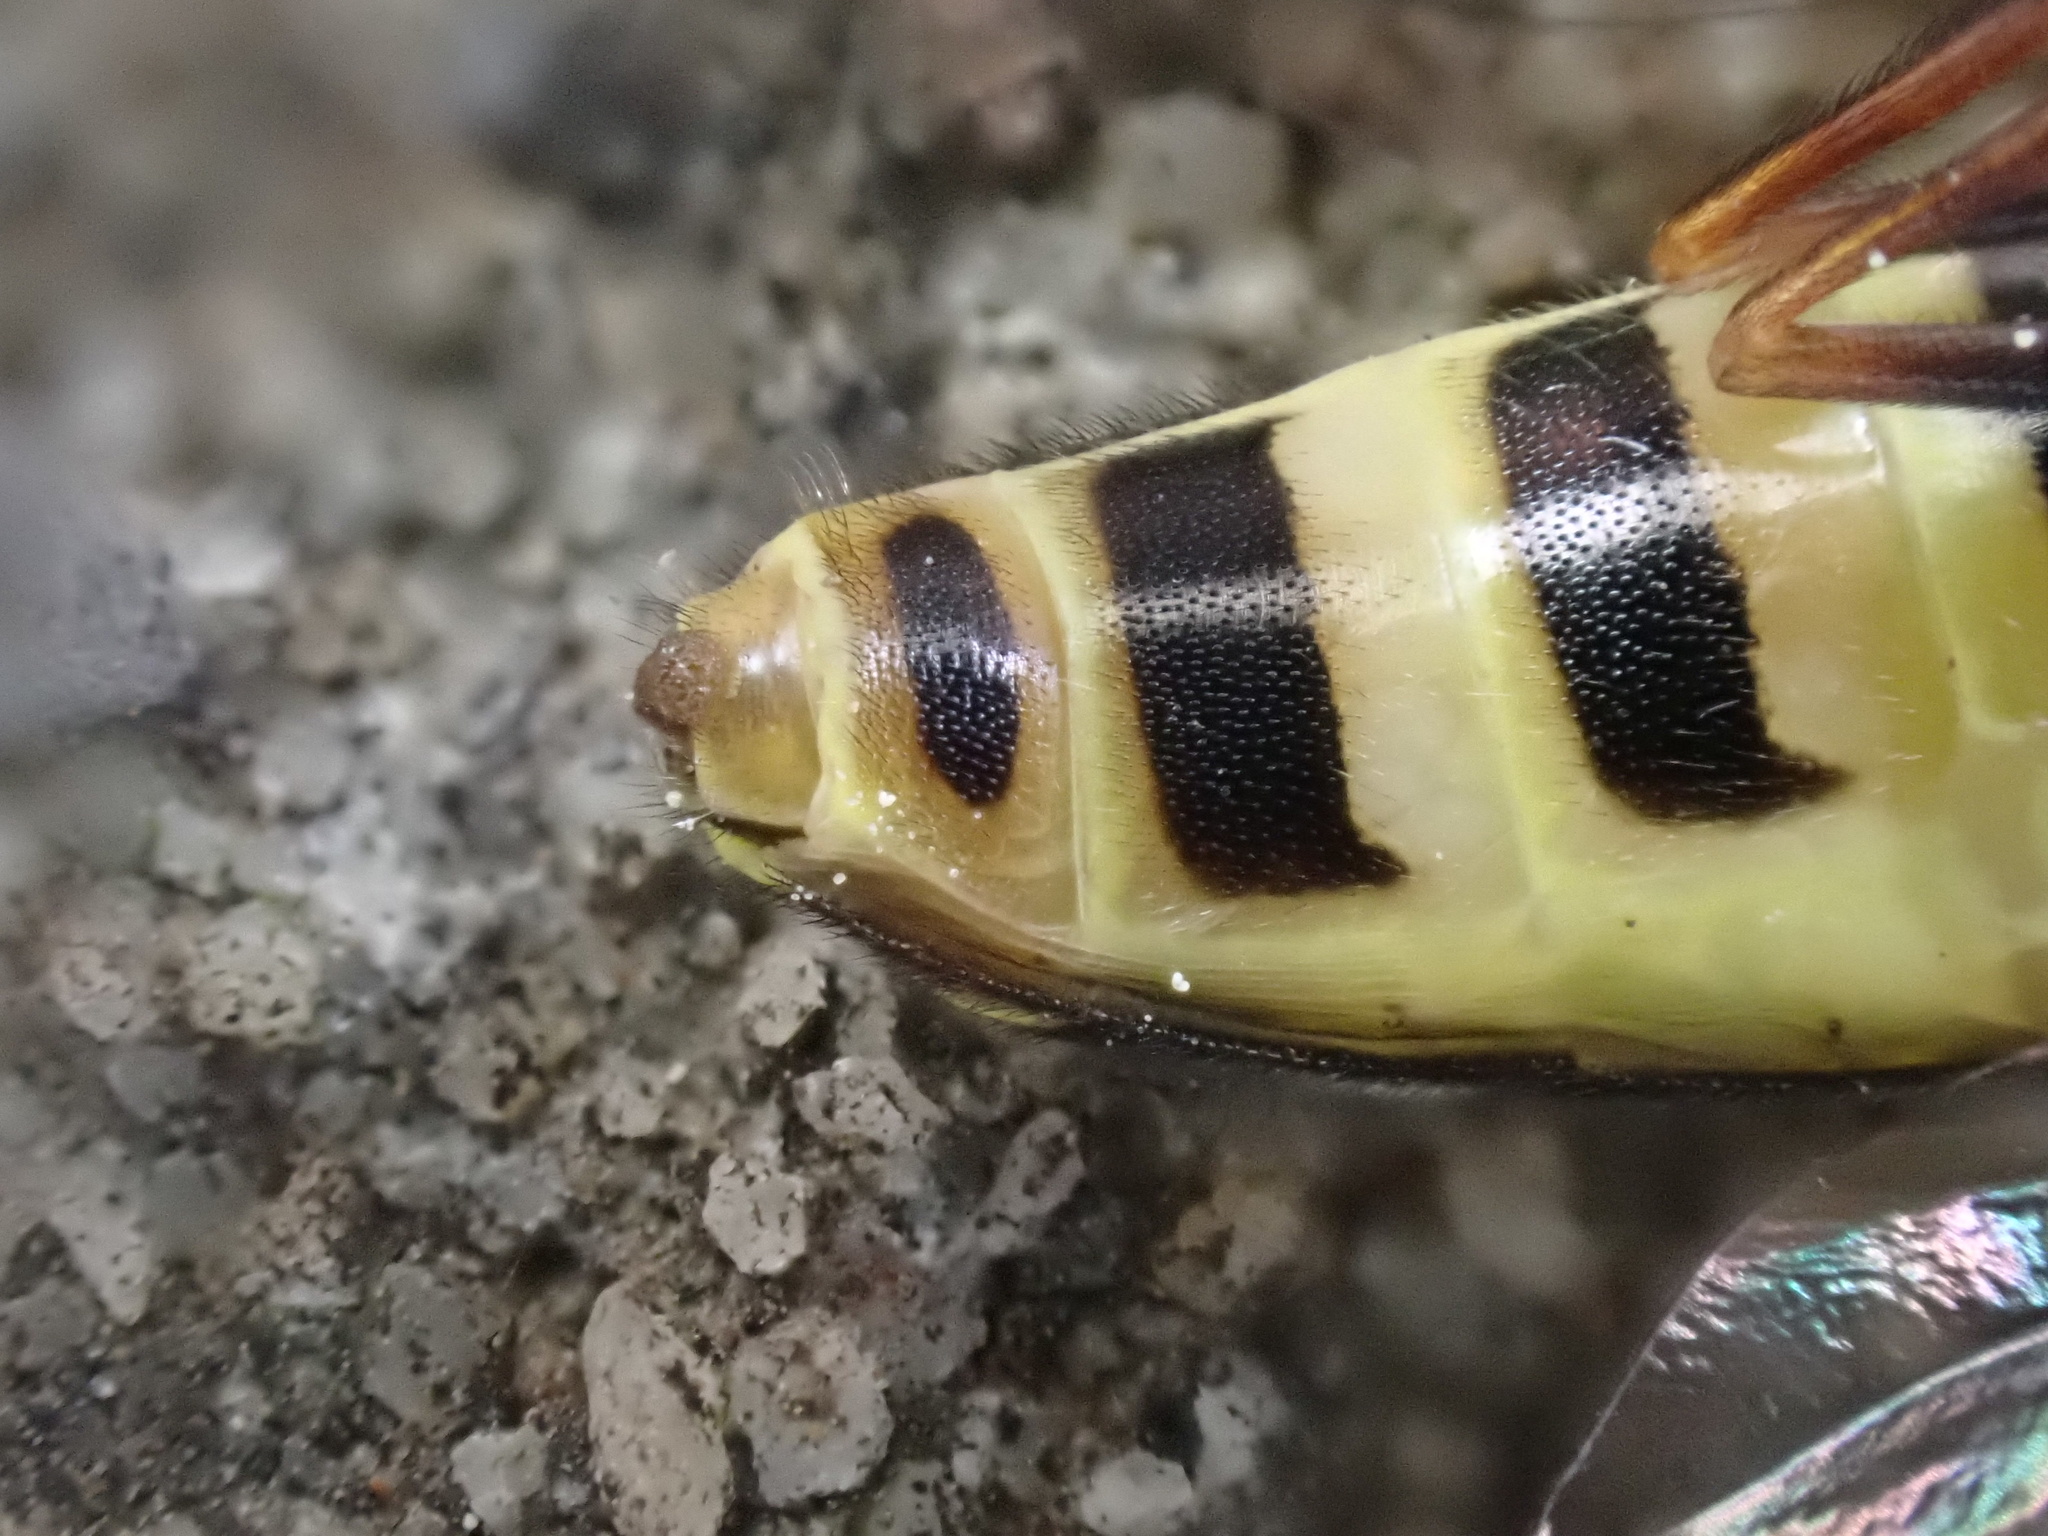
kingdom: Animalia
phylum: Arthropoda
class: Insecta
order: Diptera
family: Syrphidae
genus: Eupeodes
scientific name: Eupeodes
